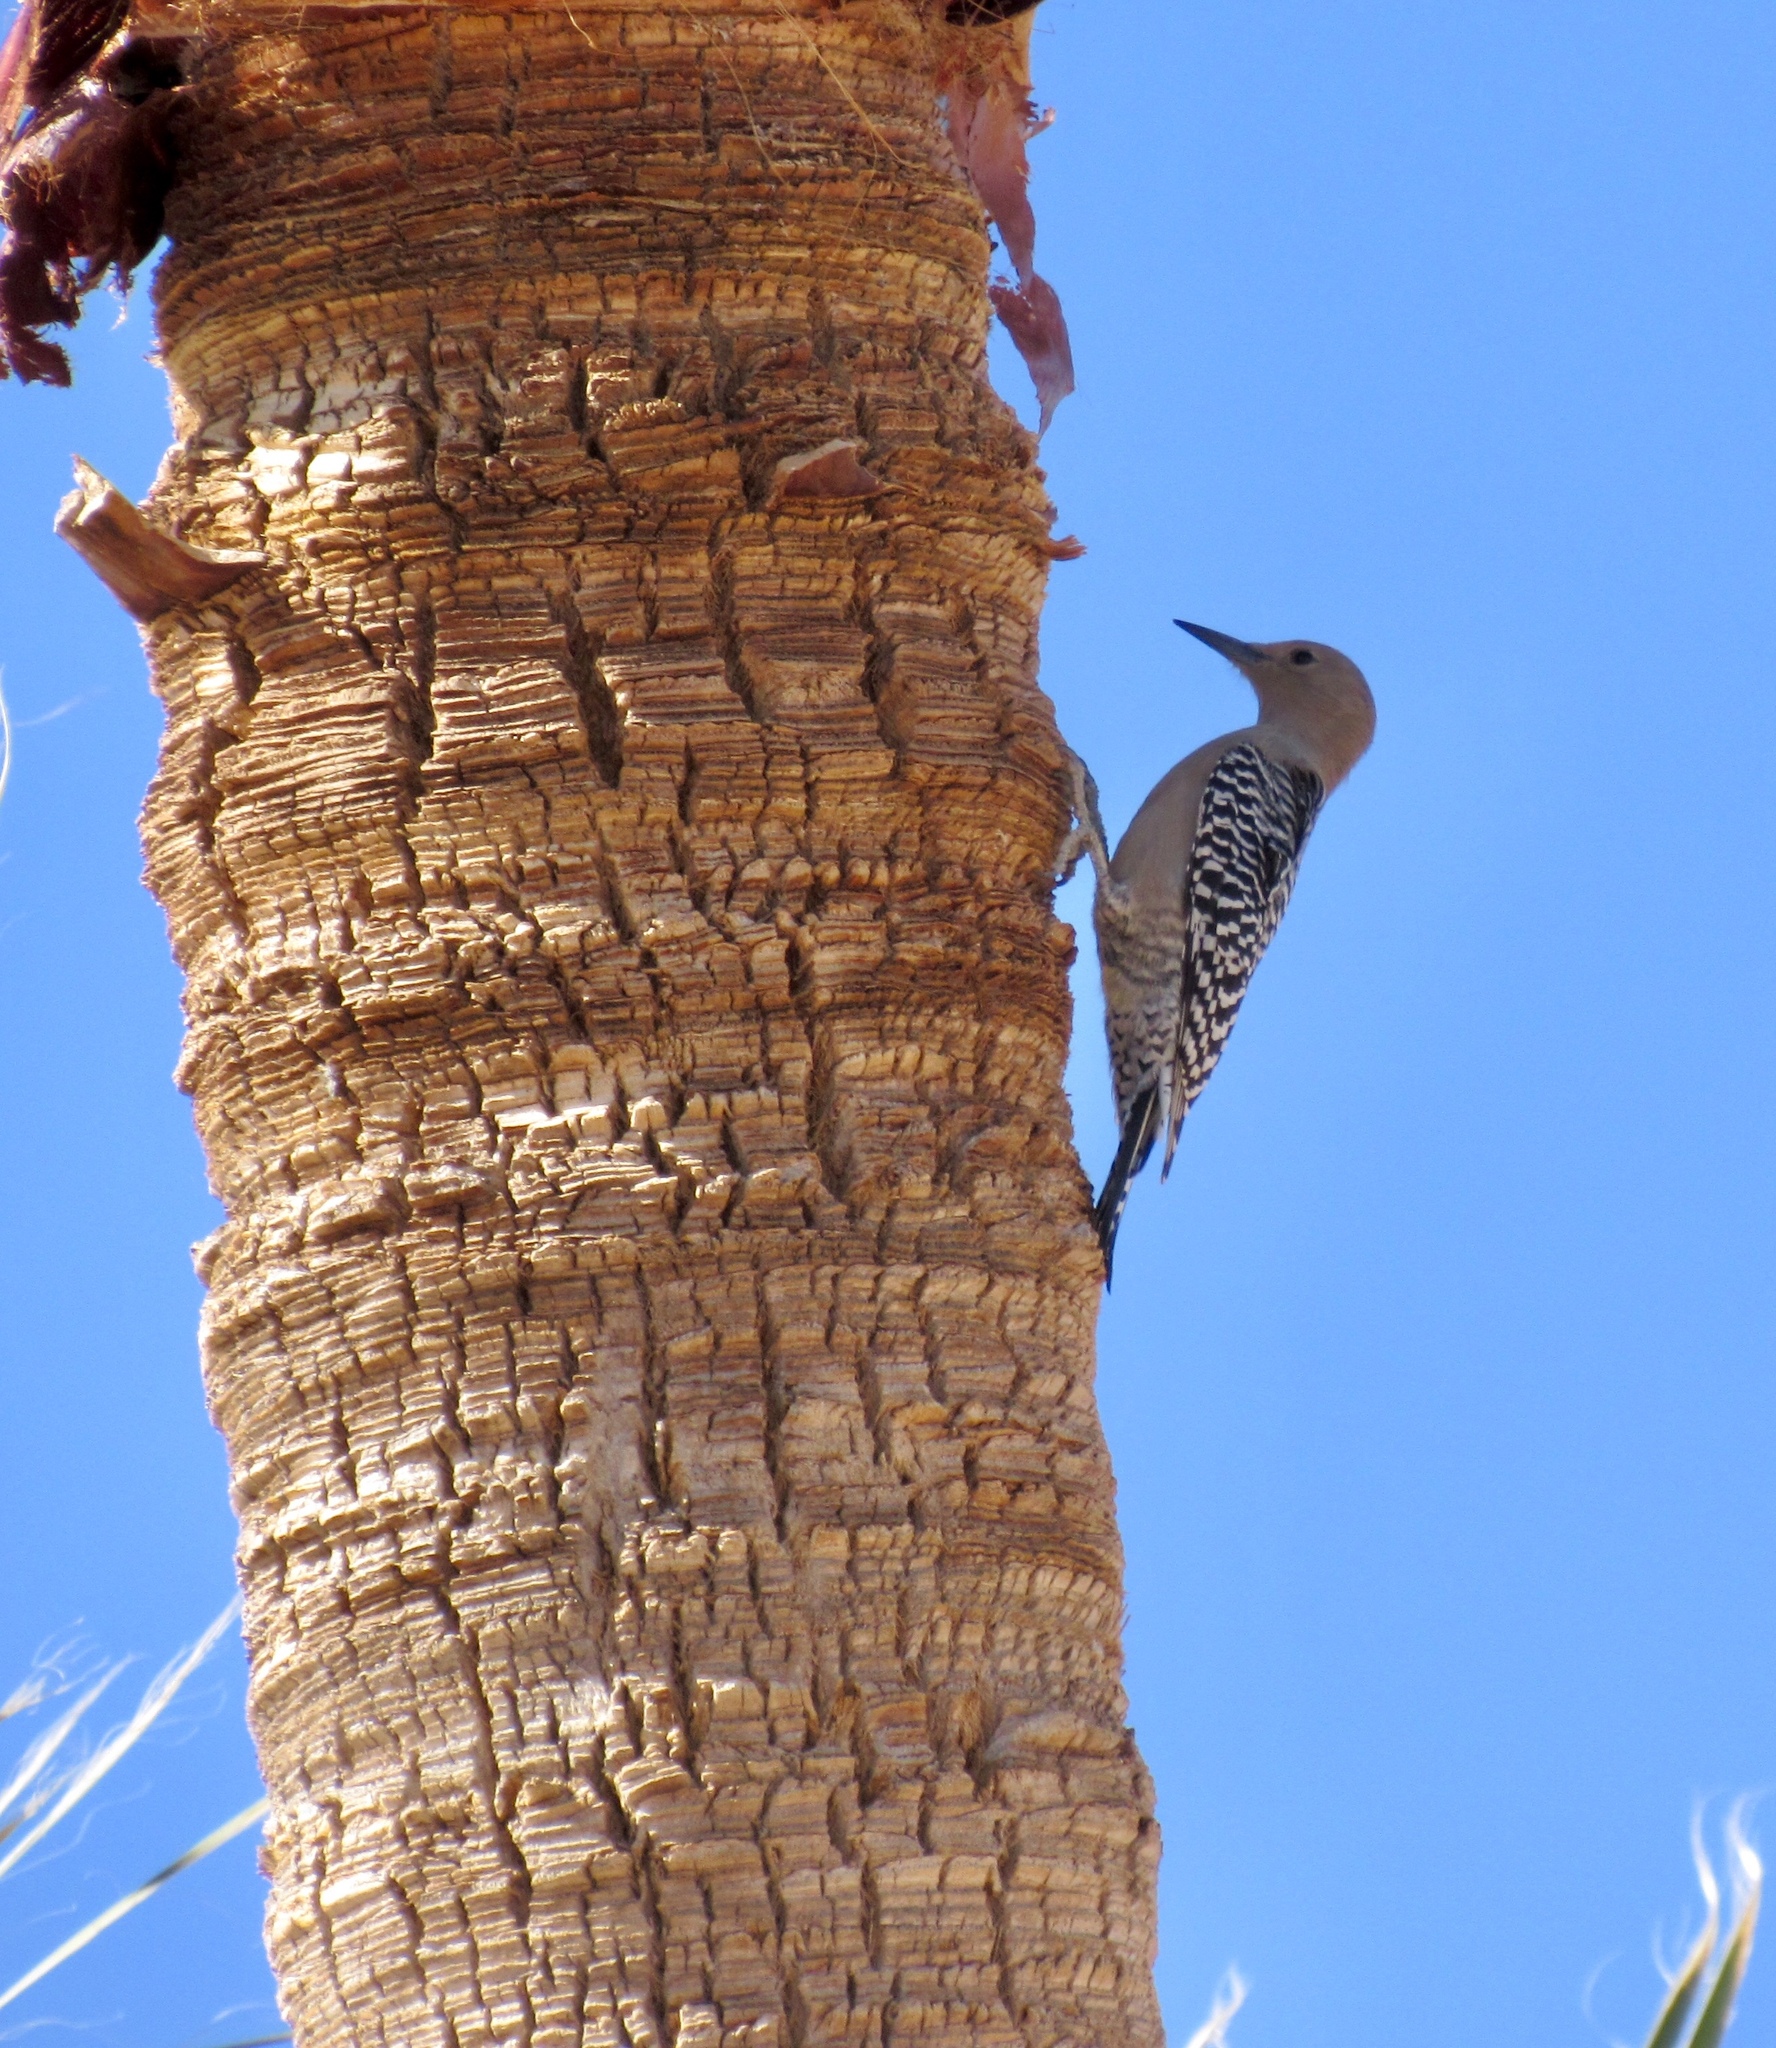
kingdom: Animalia
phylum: Chordata
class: Aves
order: Piciformes
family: Picidae
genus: Melanerpes
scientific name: Melanerpes uropygialis
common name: Gila woodpecker
